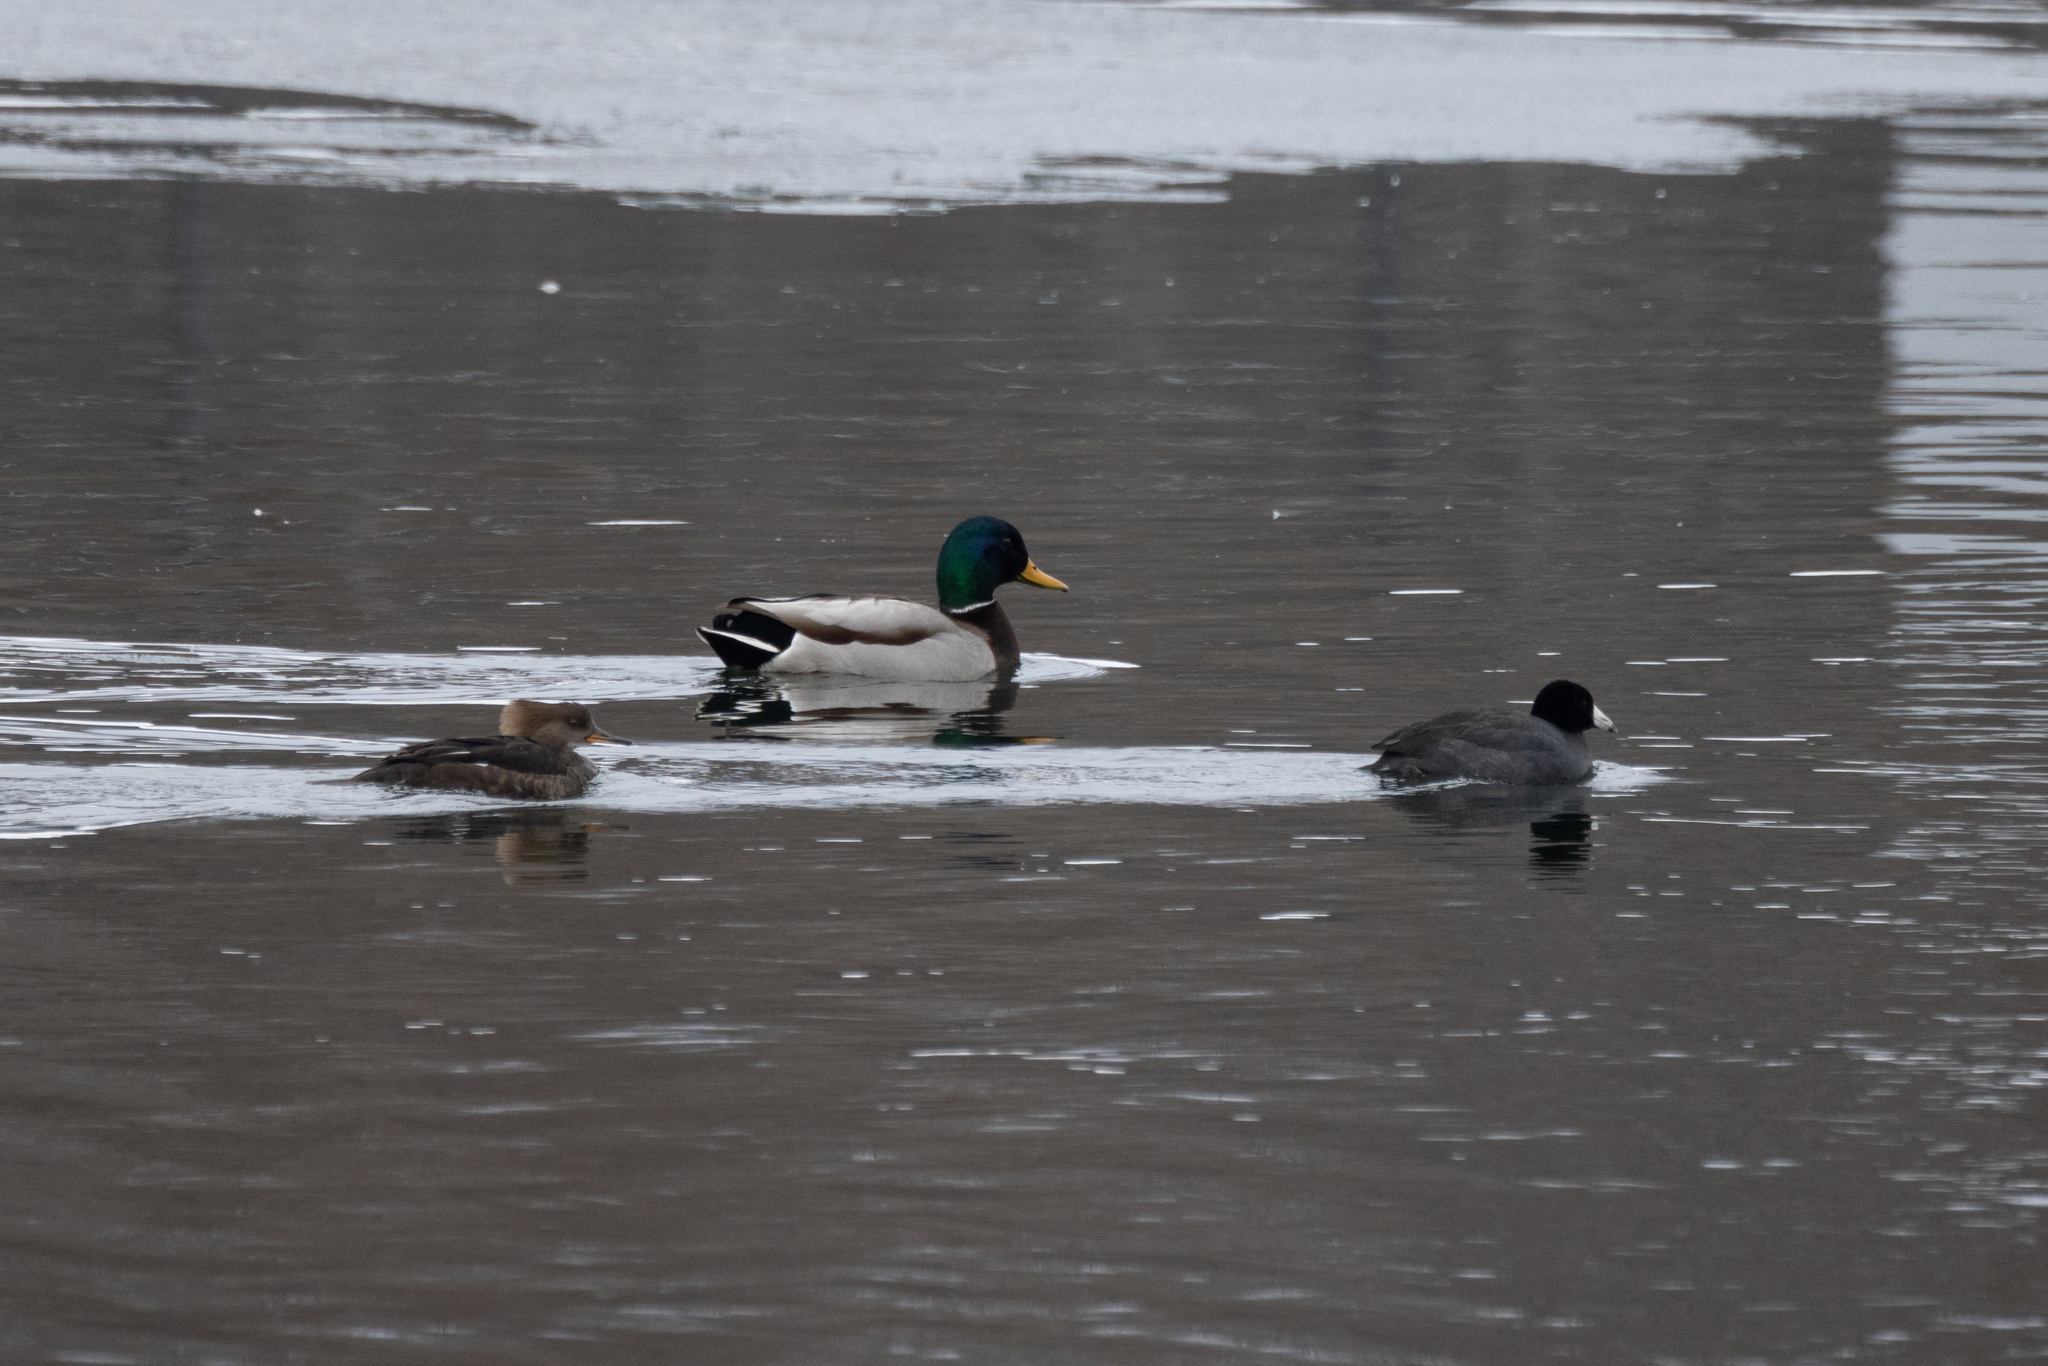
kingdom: Animalia
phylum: Chordata
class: Aves
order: Anseriformes
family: Anatidae
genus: Anas
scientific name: Anas platyrhynchos
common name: Mallard
